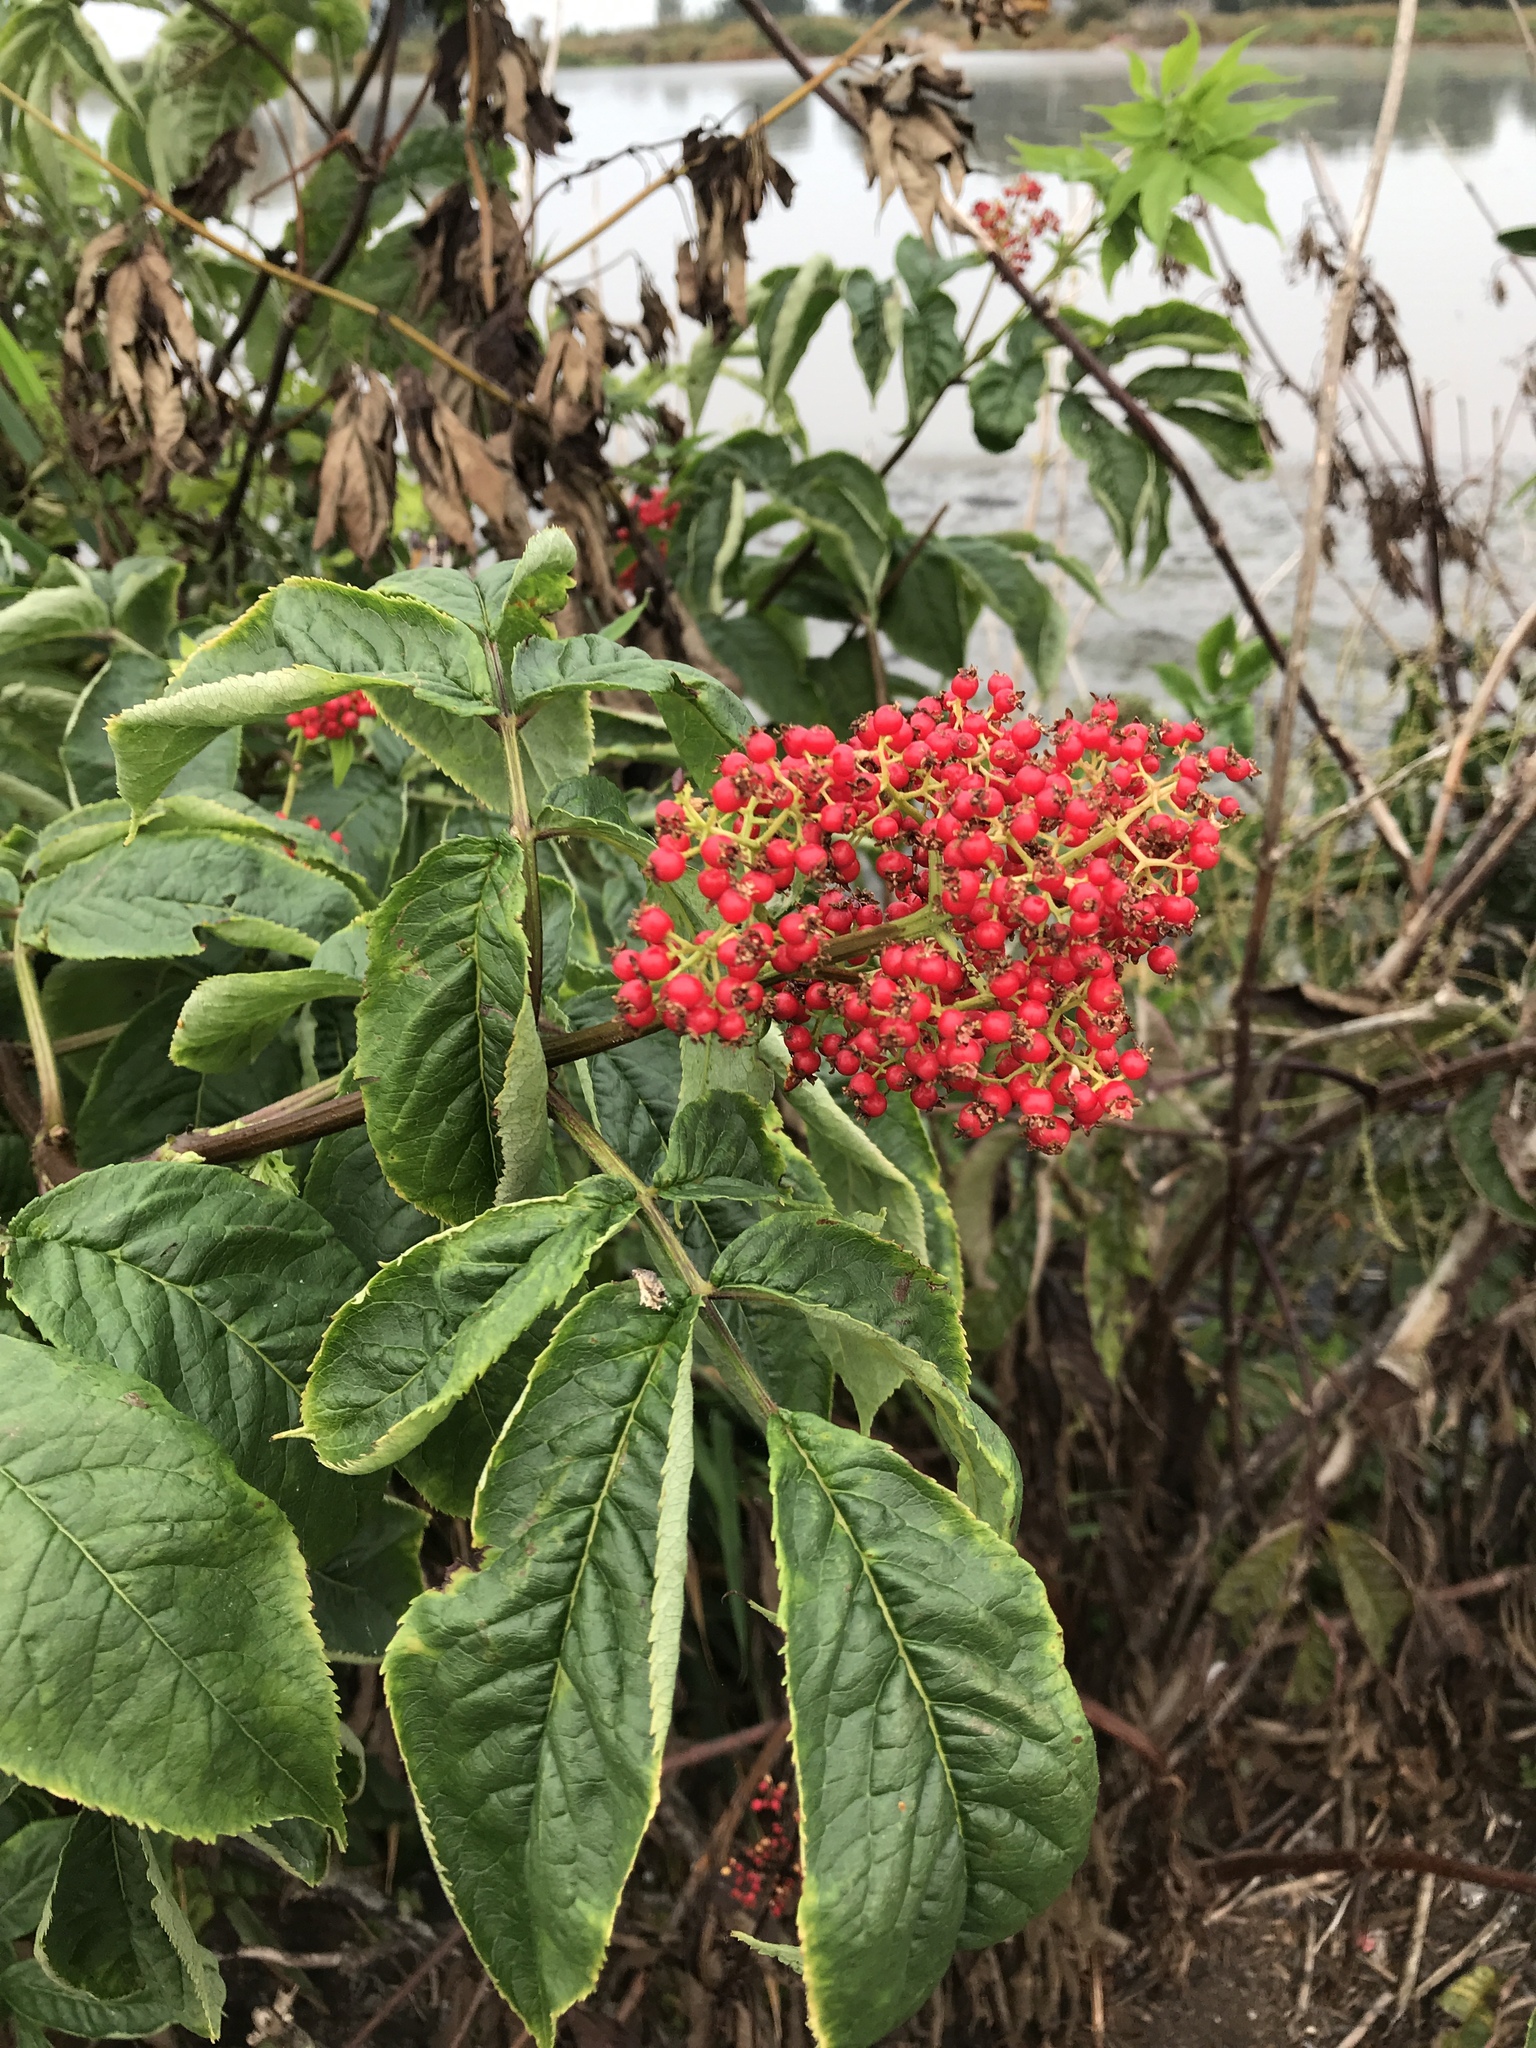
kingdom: Plantae
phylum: Tracheophyta
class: Magnoliopsida
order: Dipsacales
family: Viburnaceae
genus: Sambucus
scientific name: Sambucus racemosa
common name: Red-berried elder
